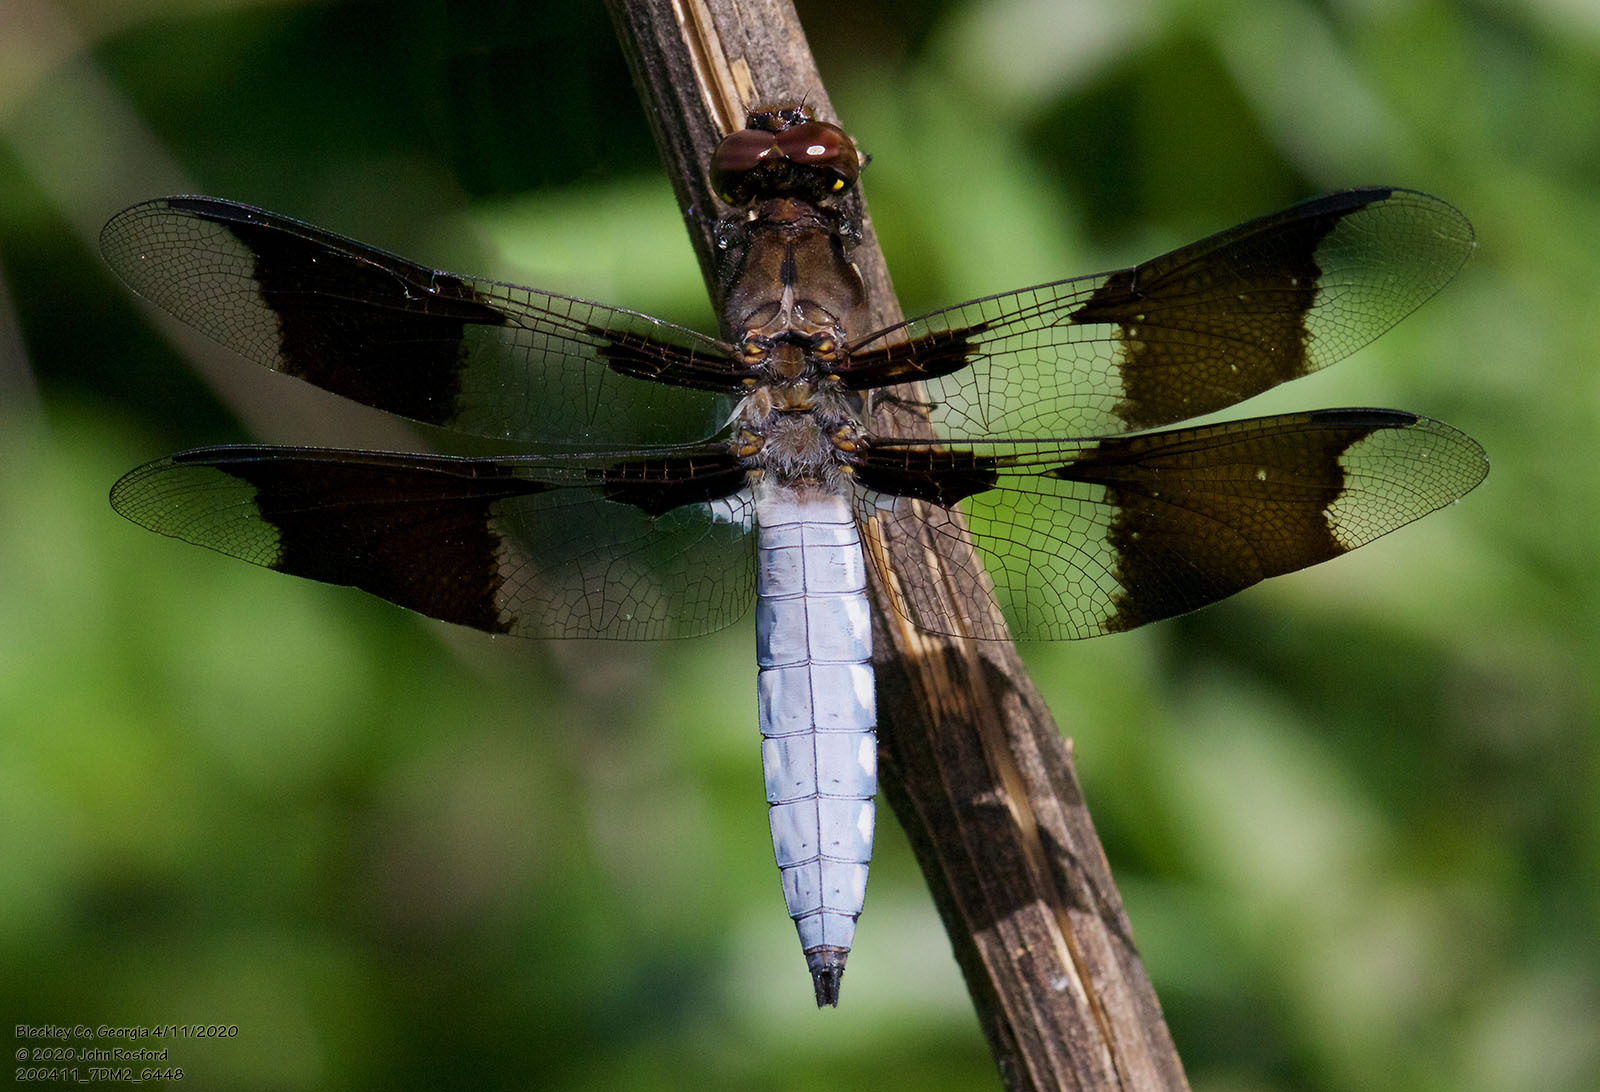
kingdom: Animalia
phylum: Arthropoda
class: Insecta
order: Odonata
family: Libellulidae
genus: Plathemis
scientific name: Plathemis lydia
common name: Common whitetail
